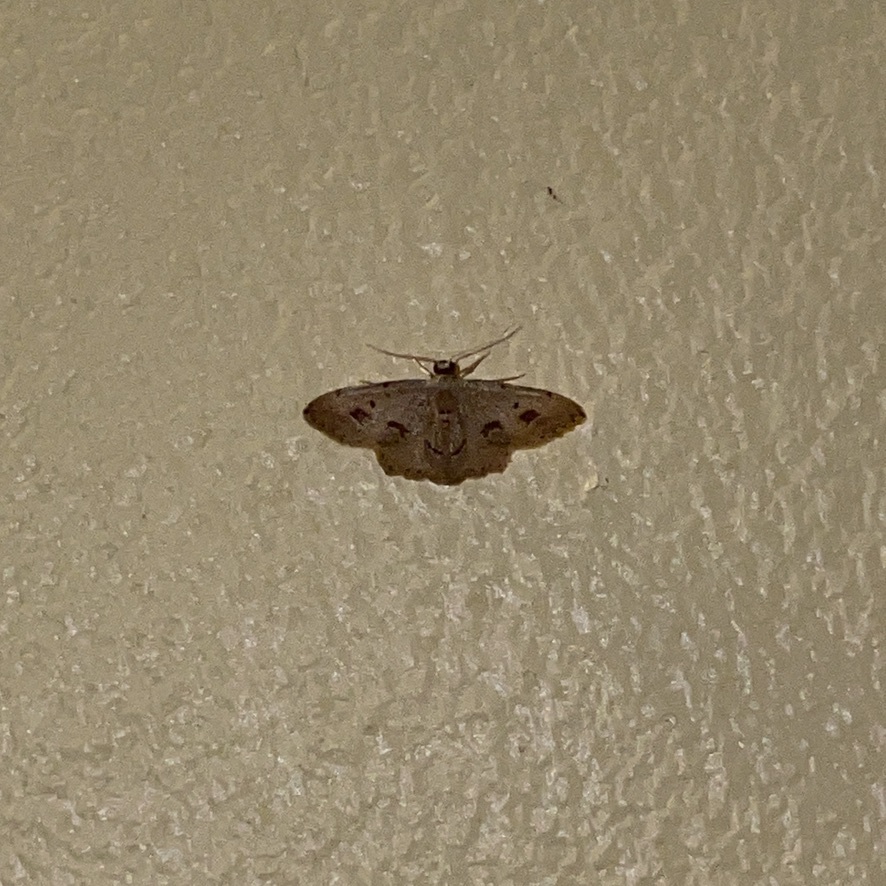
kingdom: Animalia
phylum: Arthropoda
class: Insecta
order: Lepidoptera
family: Geometridae
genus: Idaea
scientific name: Idaea gospera
